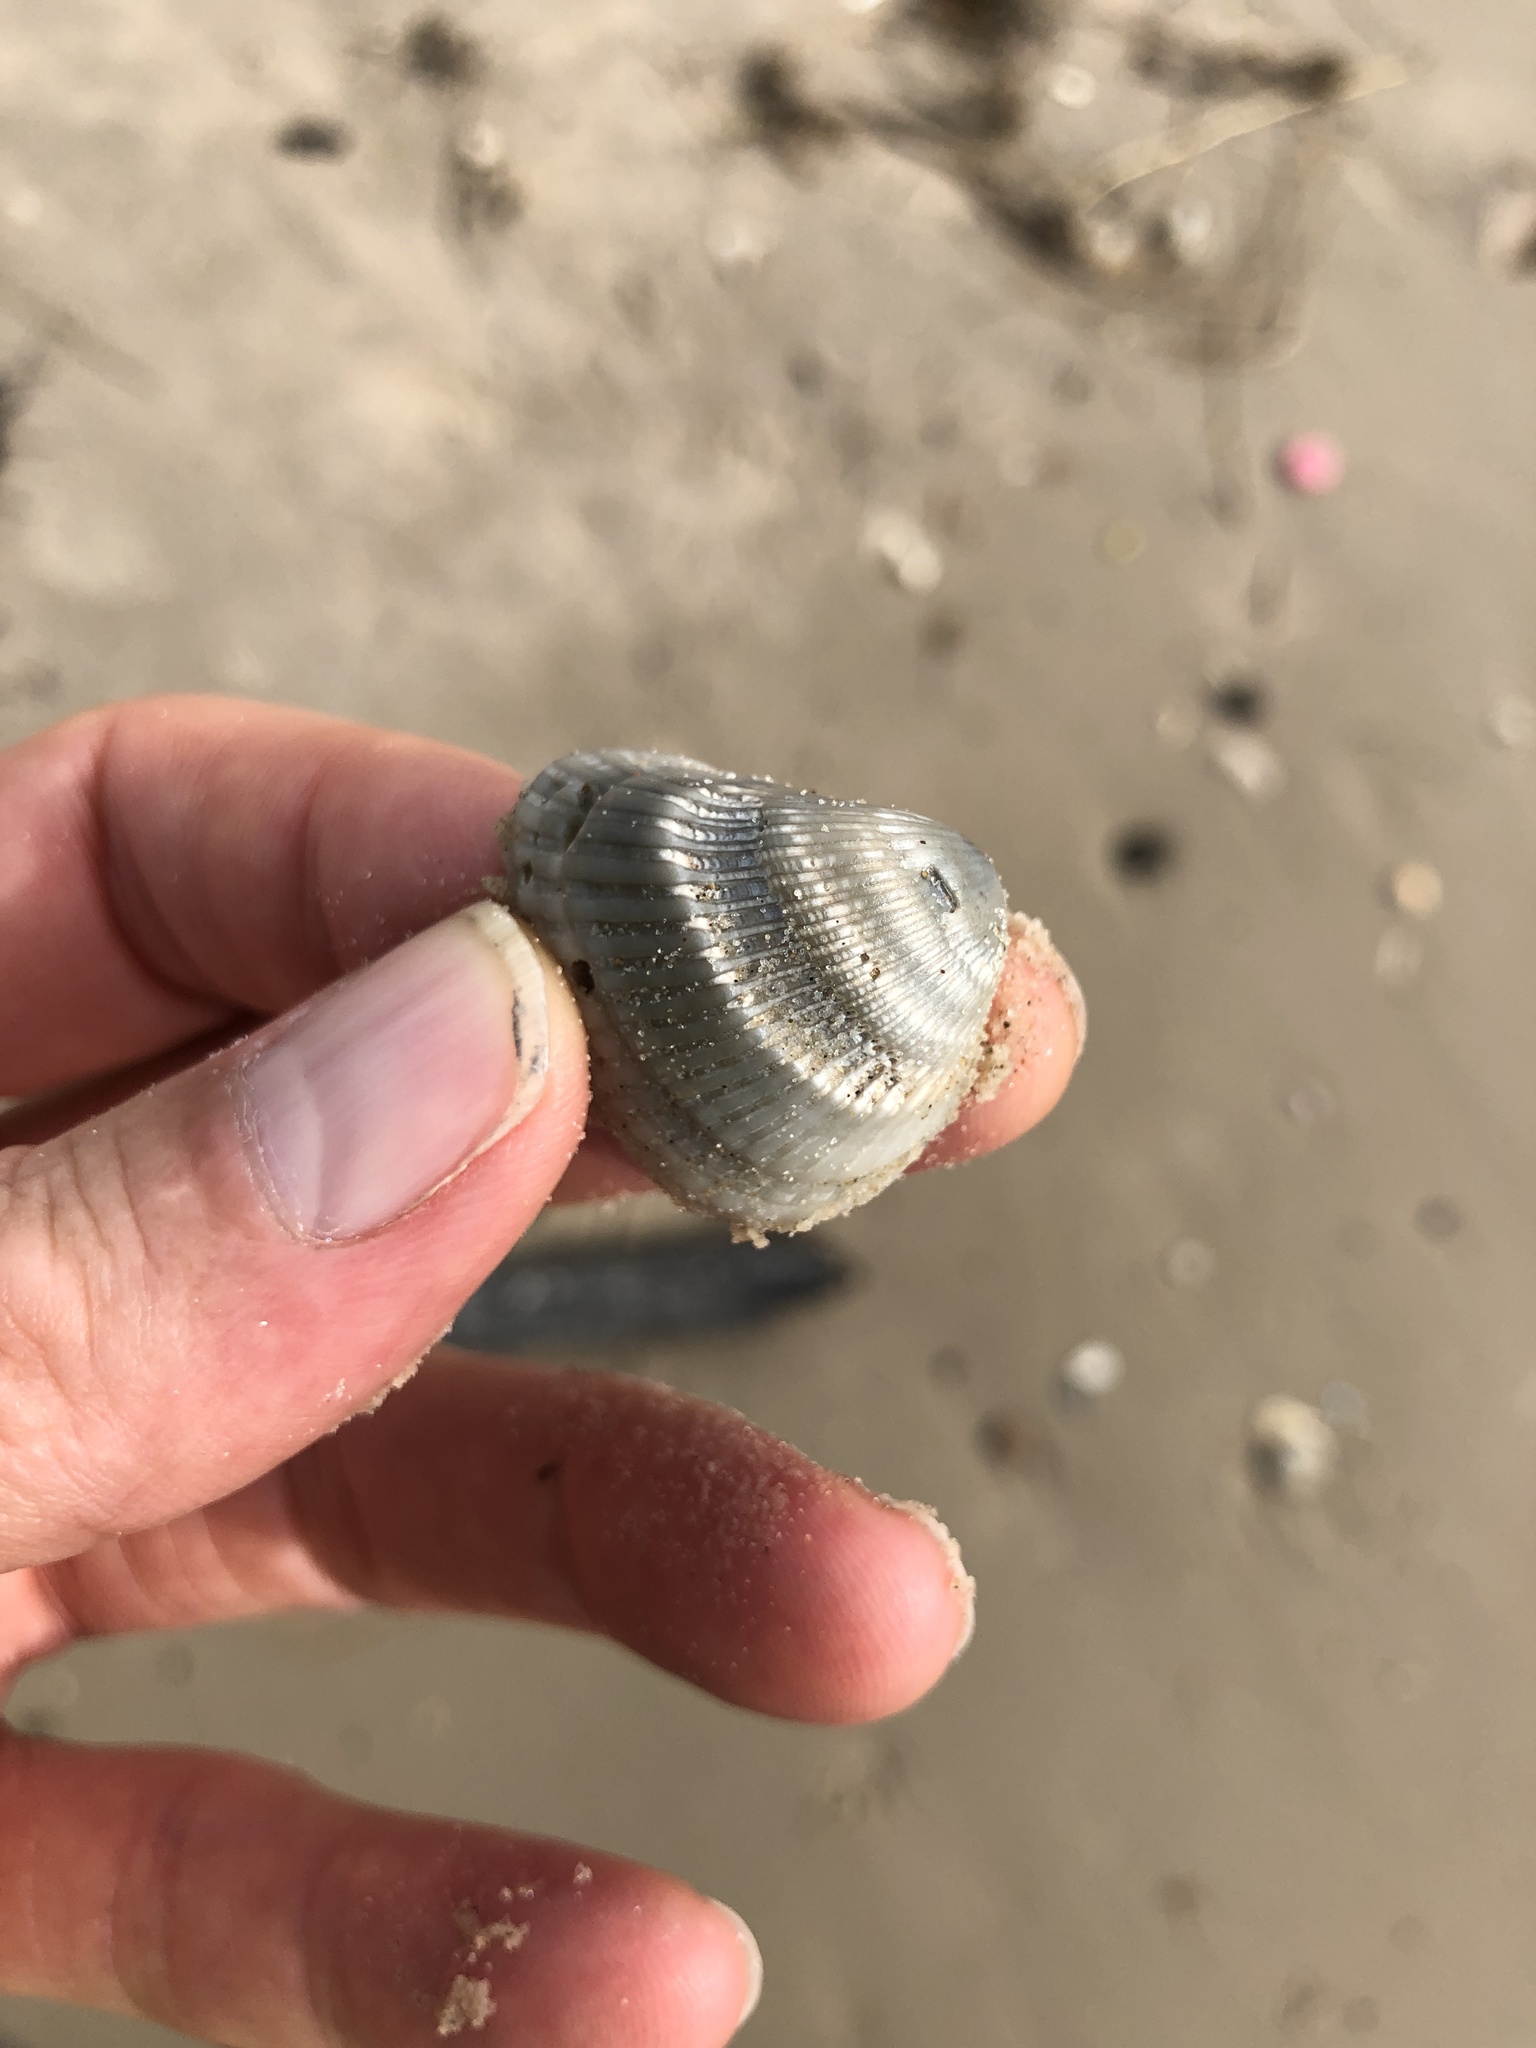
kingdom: Animalia
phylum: Mollusca
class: Bivalvia
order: Arcida
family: Noetiidae
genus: Noetia
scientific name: Noetia ponderosa
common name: Ponderous ark
